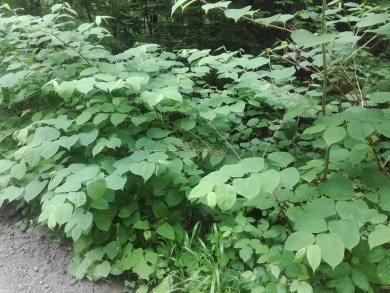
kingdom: Plantae
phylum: Tracheophyta
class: Magnoliopsida
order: Caryophyllales
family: Polygonaceae
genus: Reynoutria
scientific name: Reynoutria japonica
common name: Japanese knotweed
